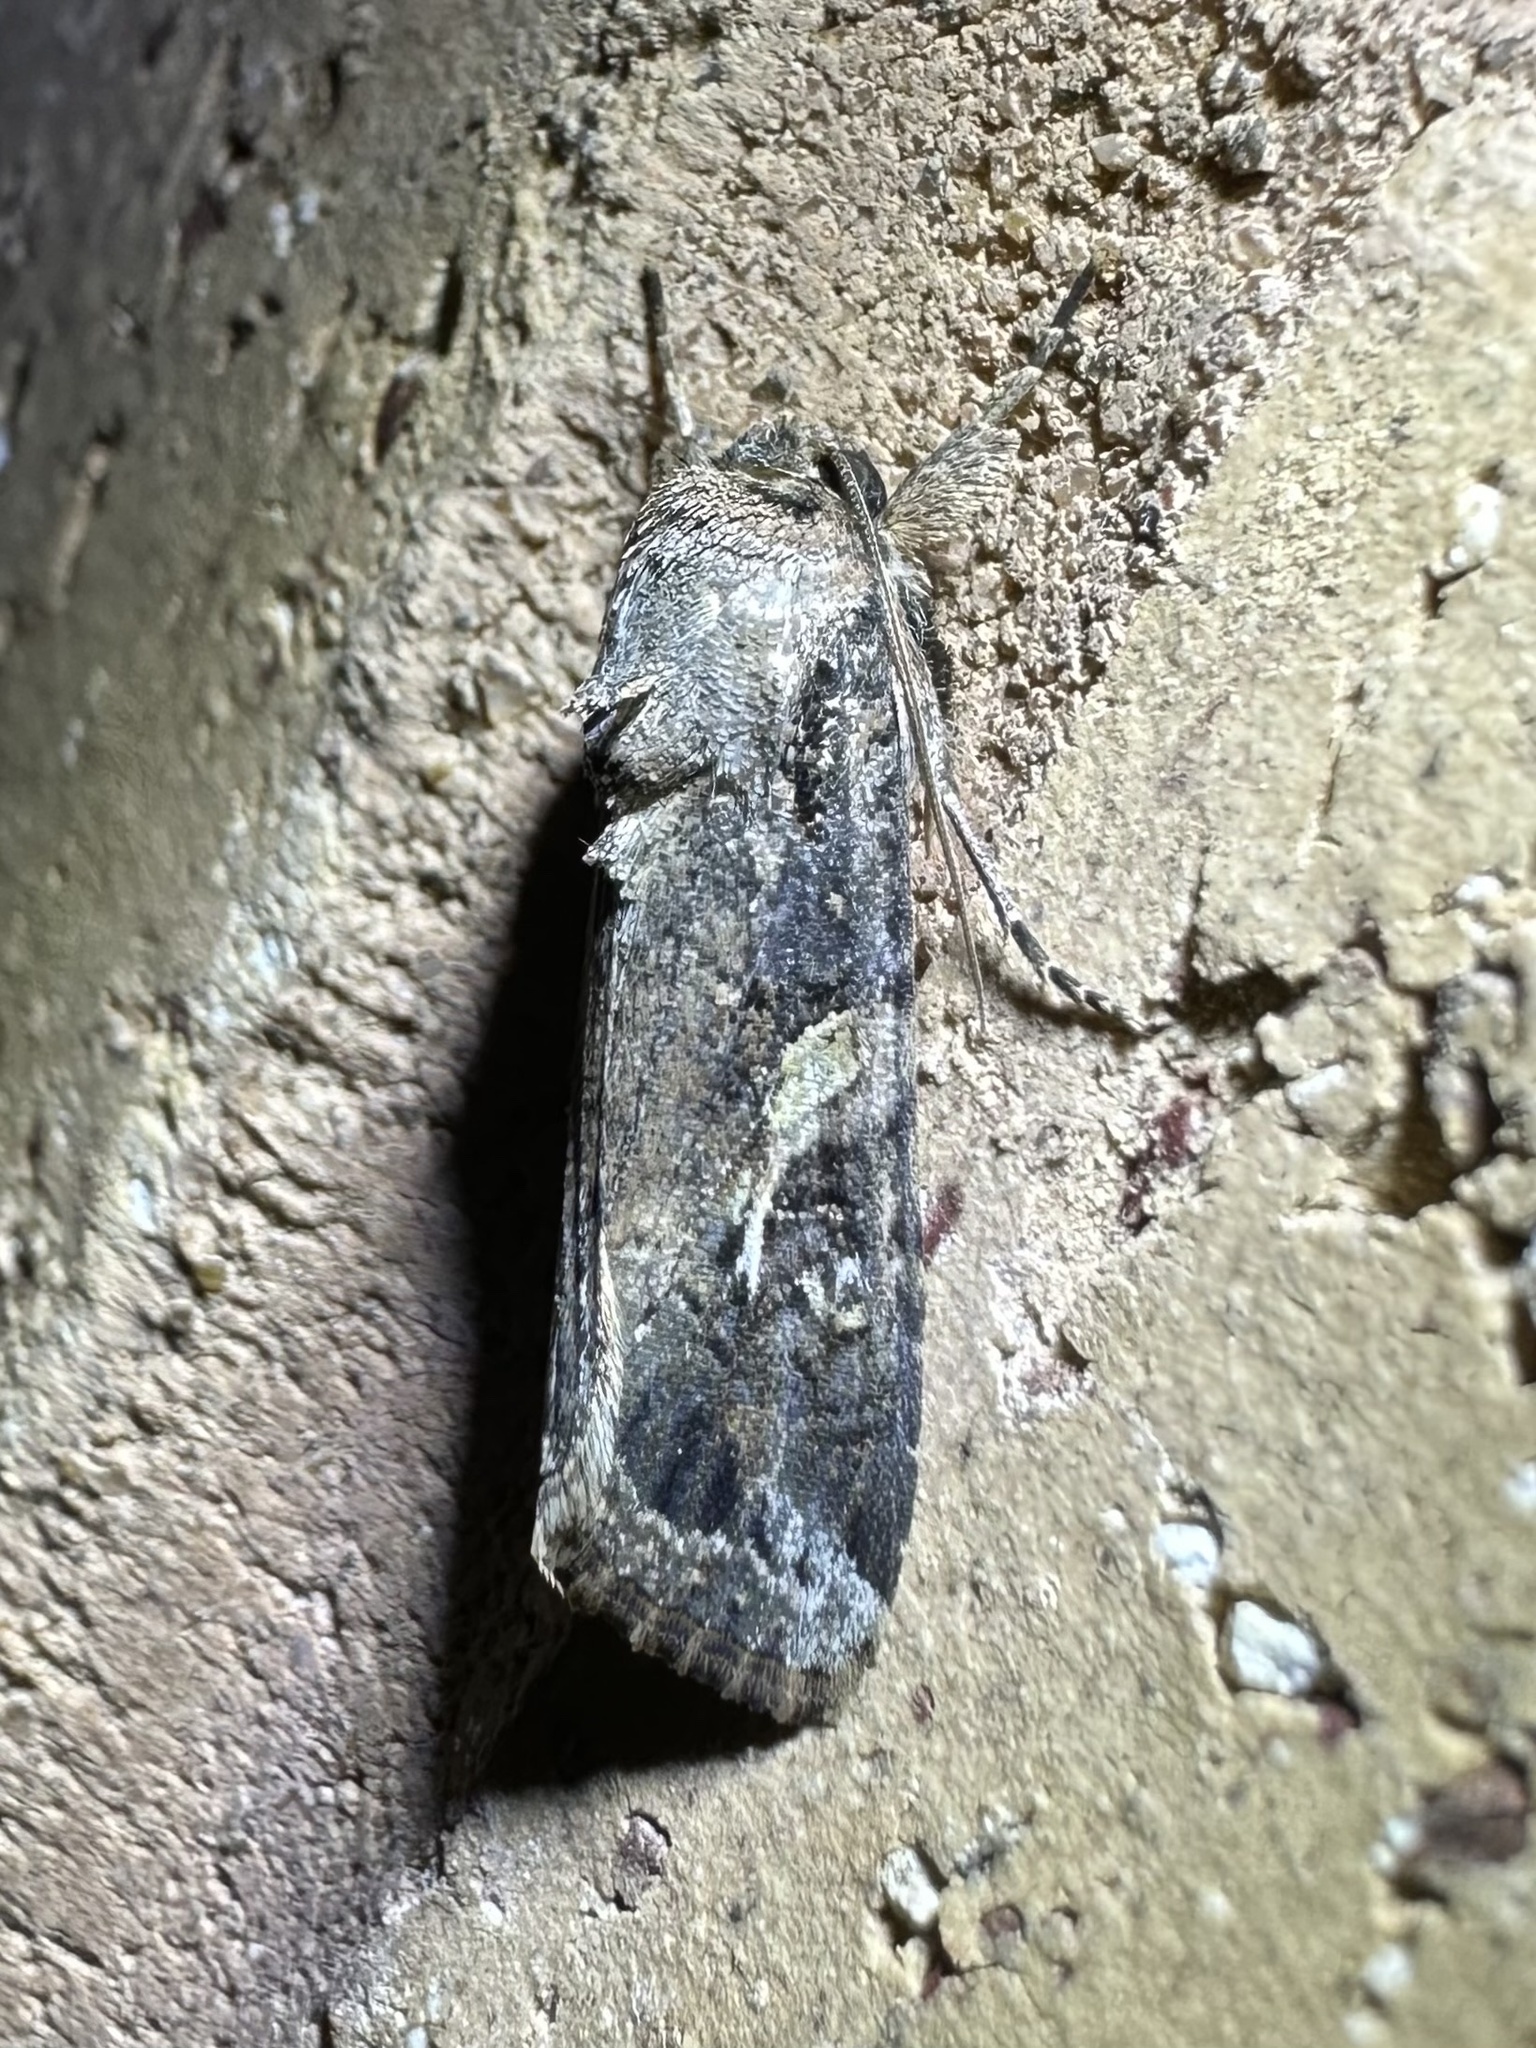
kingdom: Animalia
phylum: Arthropoda
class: Insecta
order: Lepidoptera
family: Noctuidae
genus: Spodoptera
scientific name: Spodoptera frugiperda
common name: Fall armyworm
